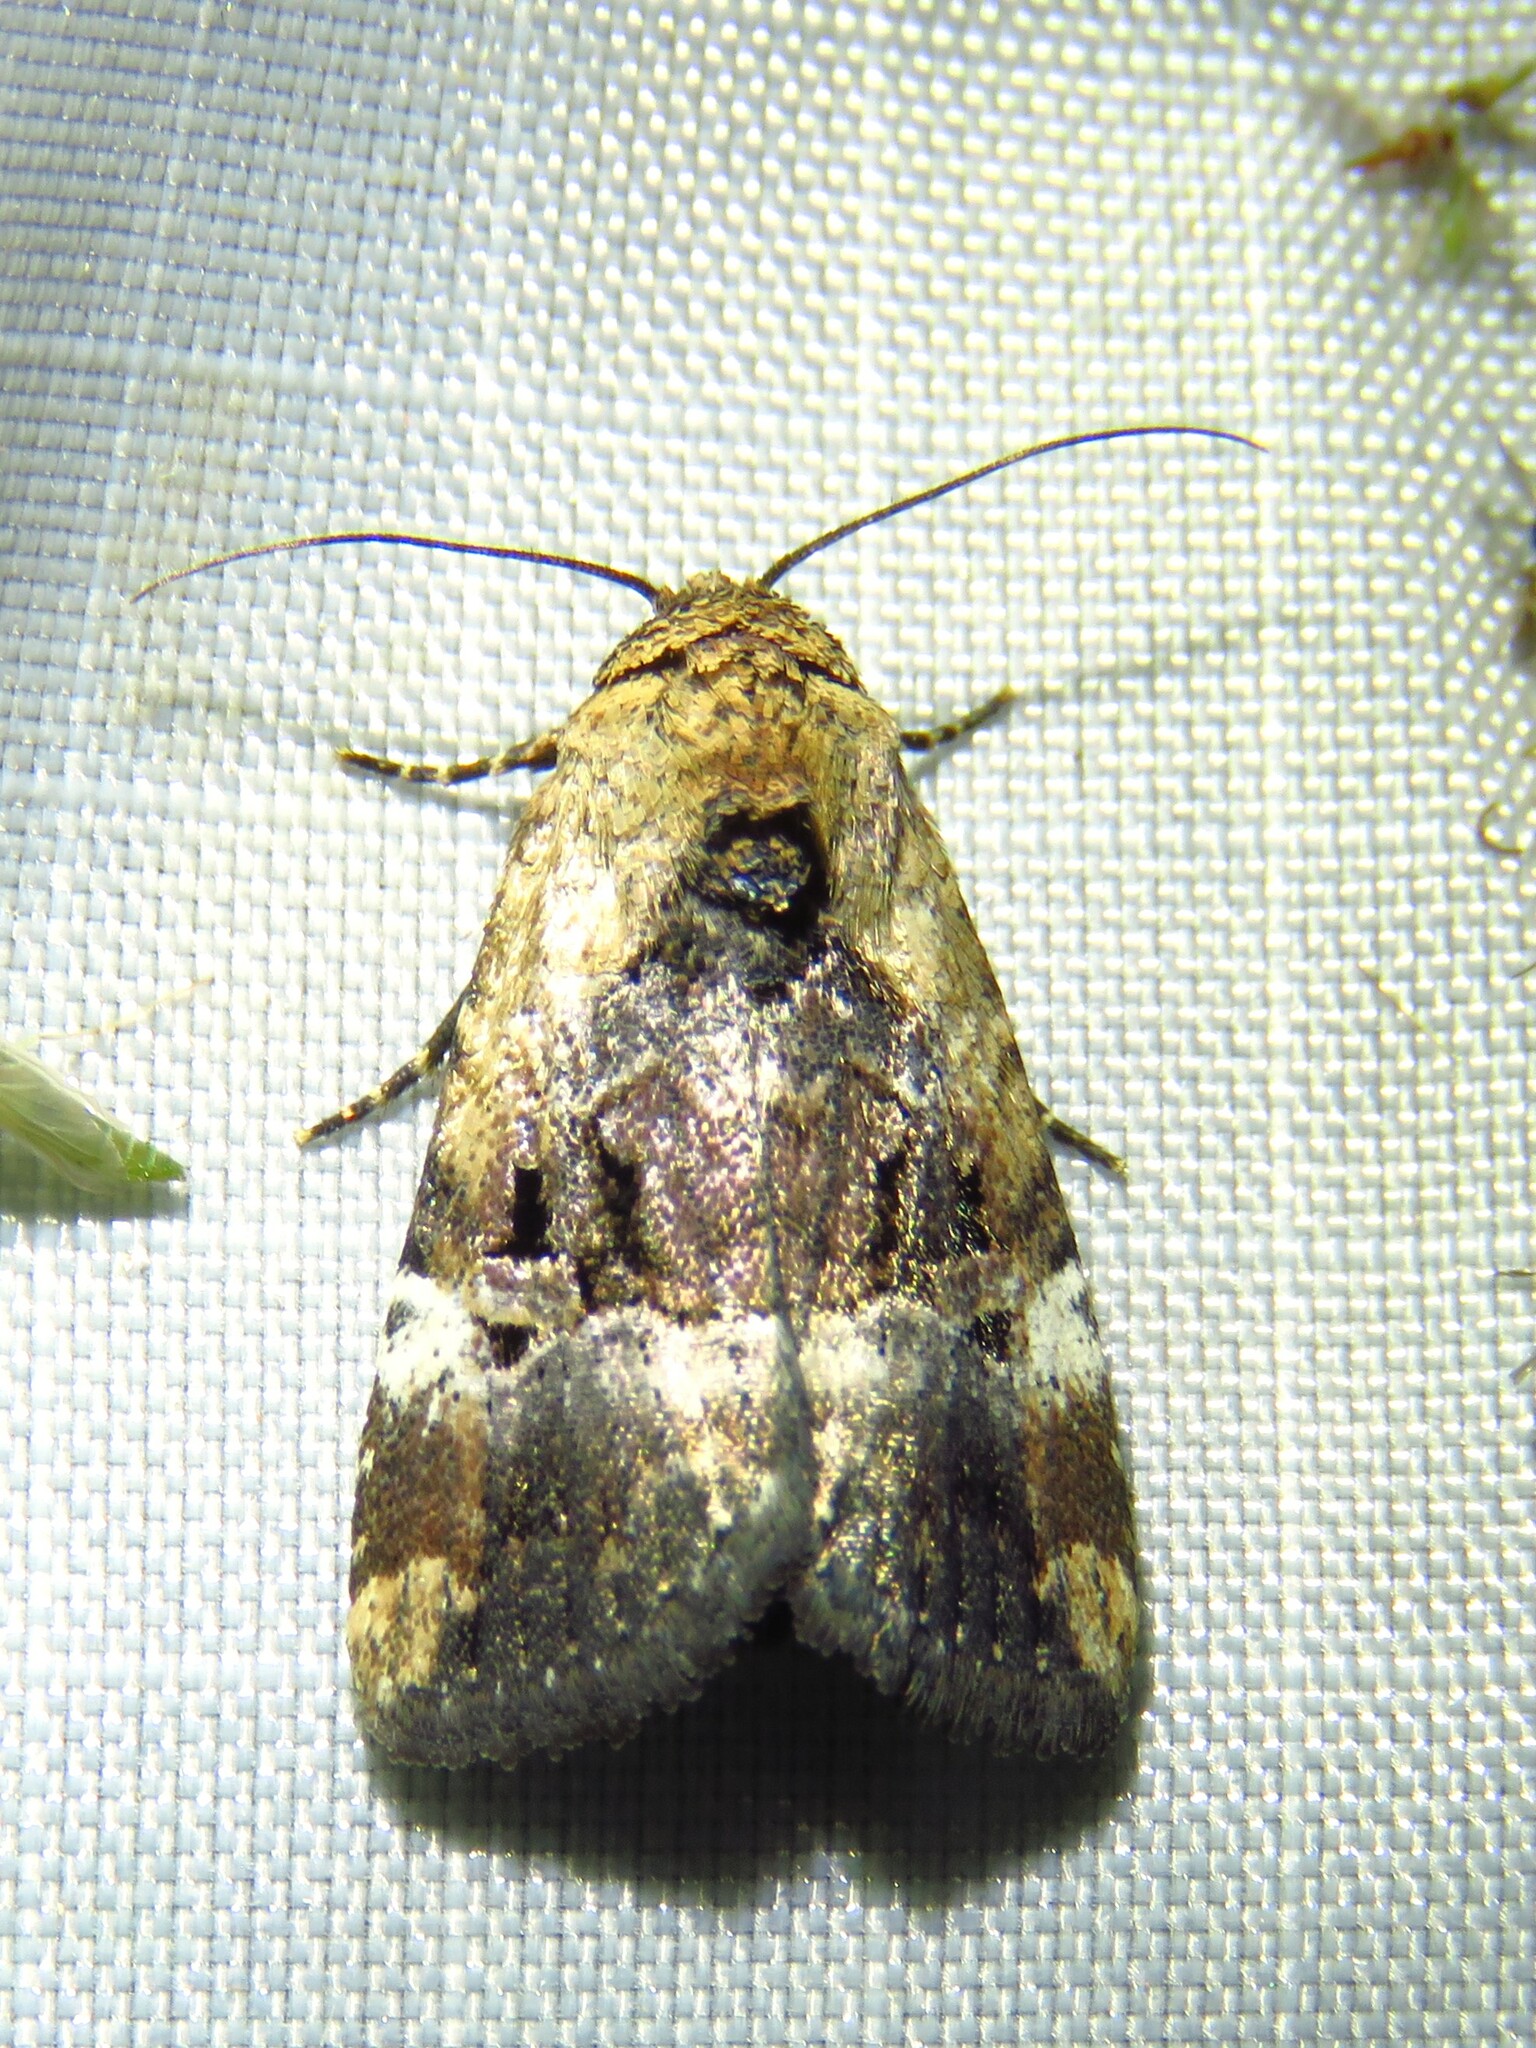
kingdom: Animalia
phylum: Arthropoda
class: Insecta
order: Lepidoptera
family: Noctuidae
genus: Elaphria
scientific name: Elaphria chalcedonia
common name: Chalcedony midget
